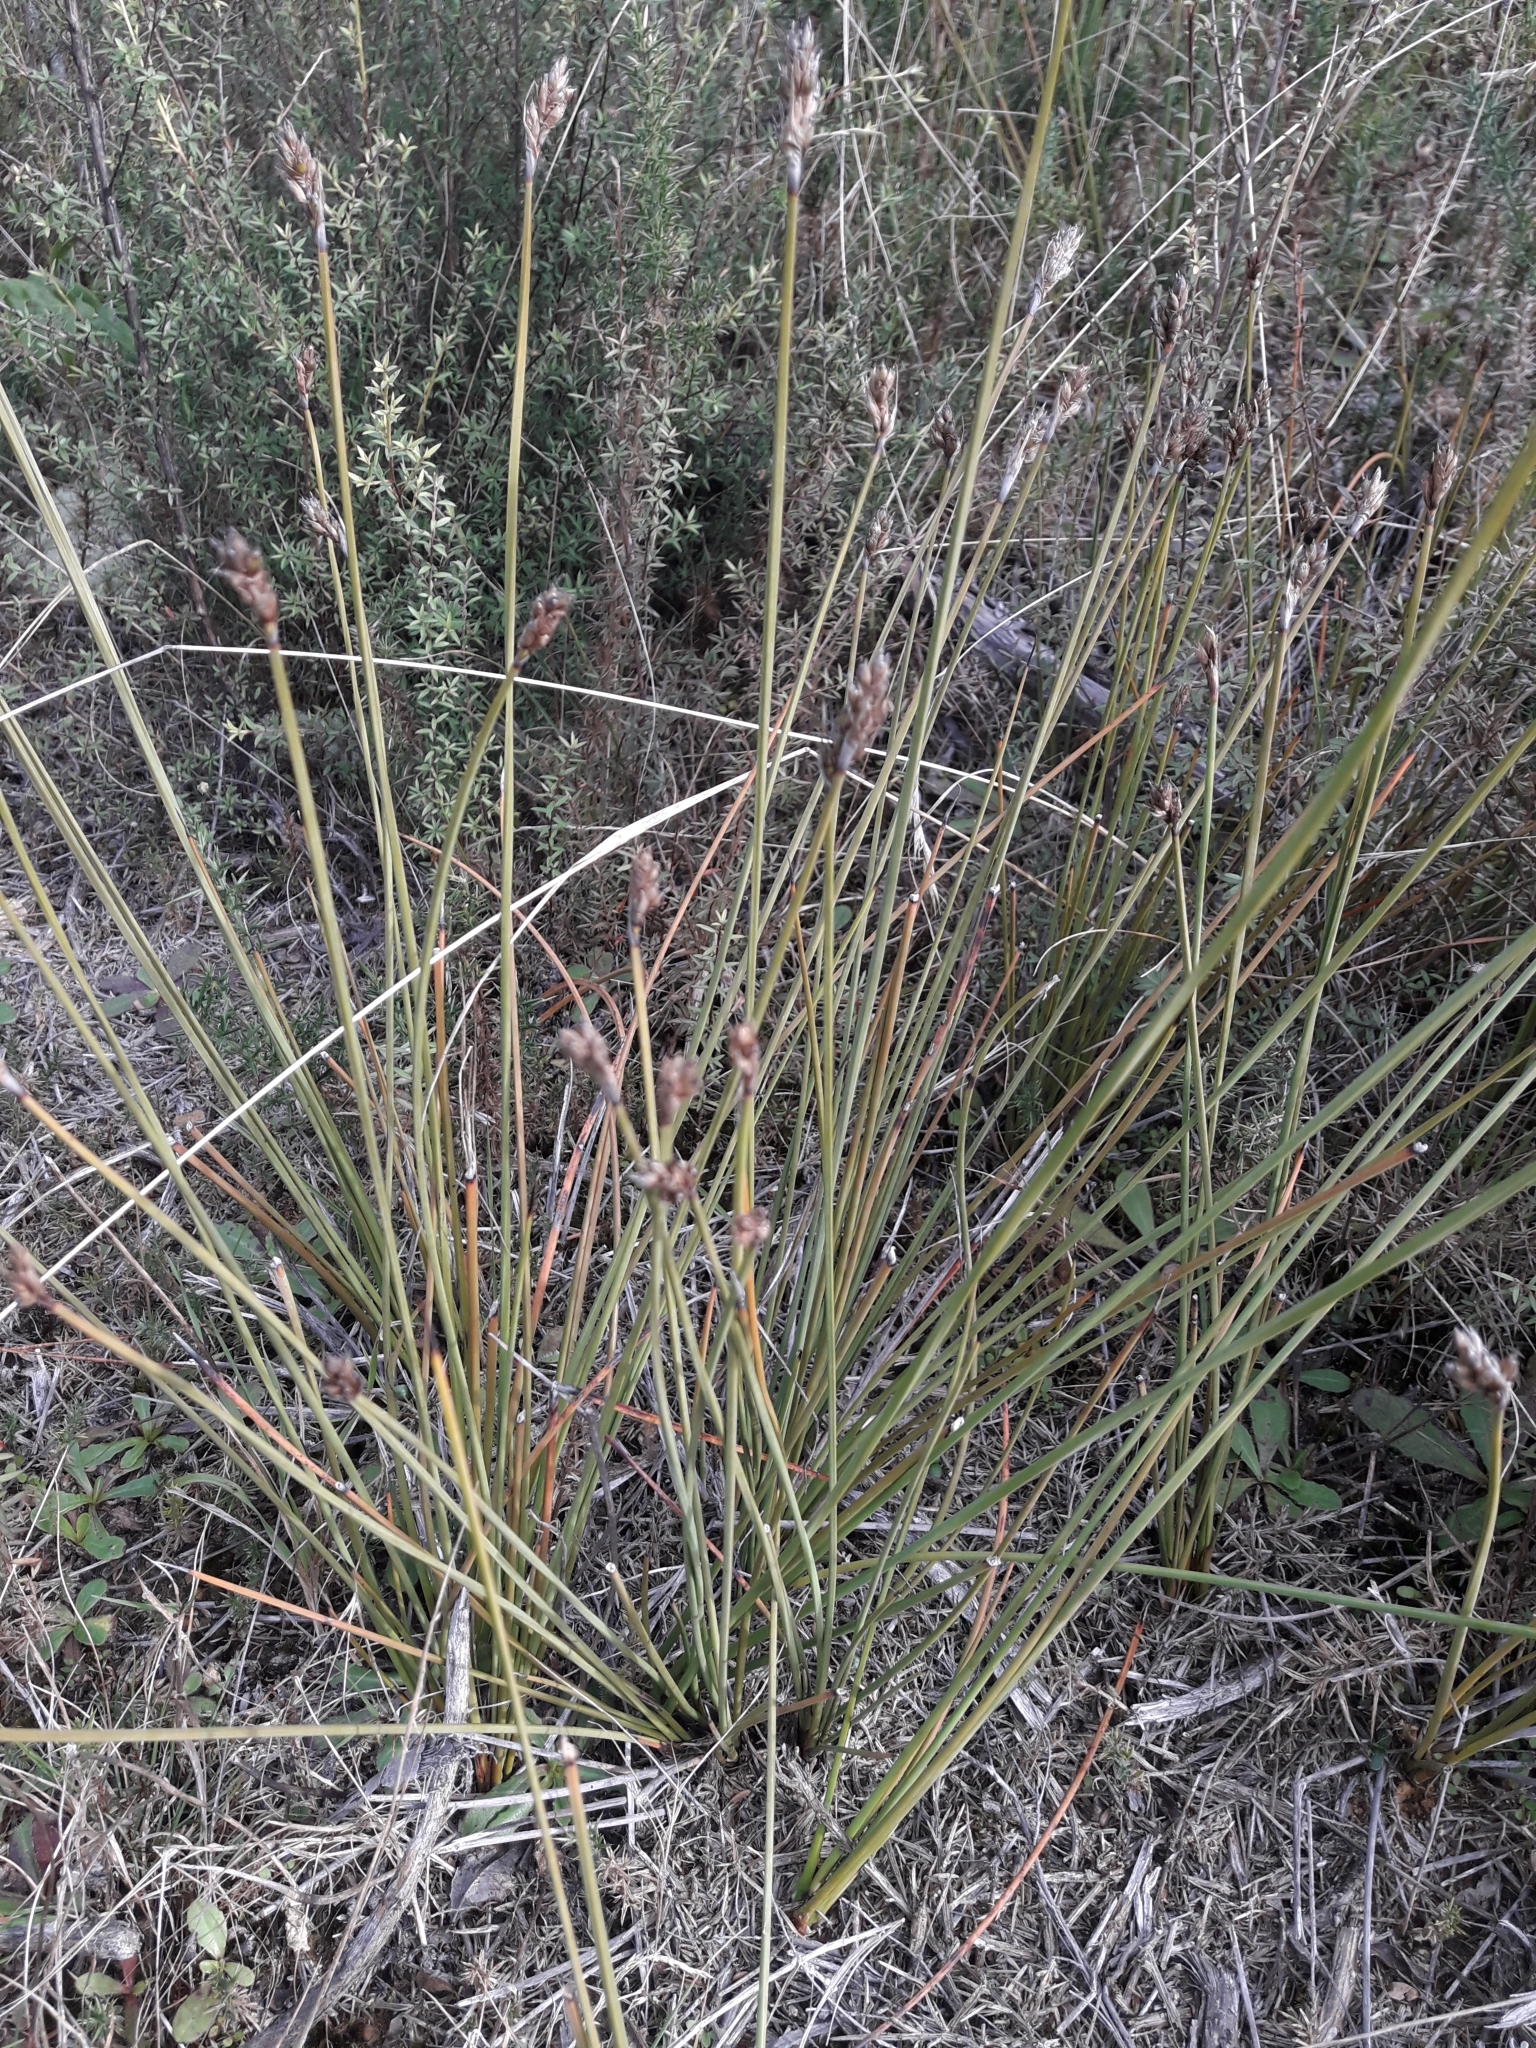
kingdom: Plantae
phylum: Tracheophyta
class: Liliopsida
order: Poales
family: Cyperaceae
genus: Lepidosperma
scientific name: Lepidosperma australe
